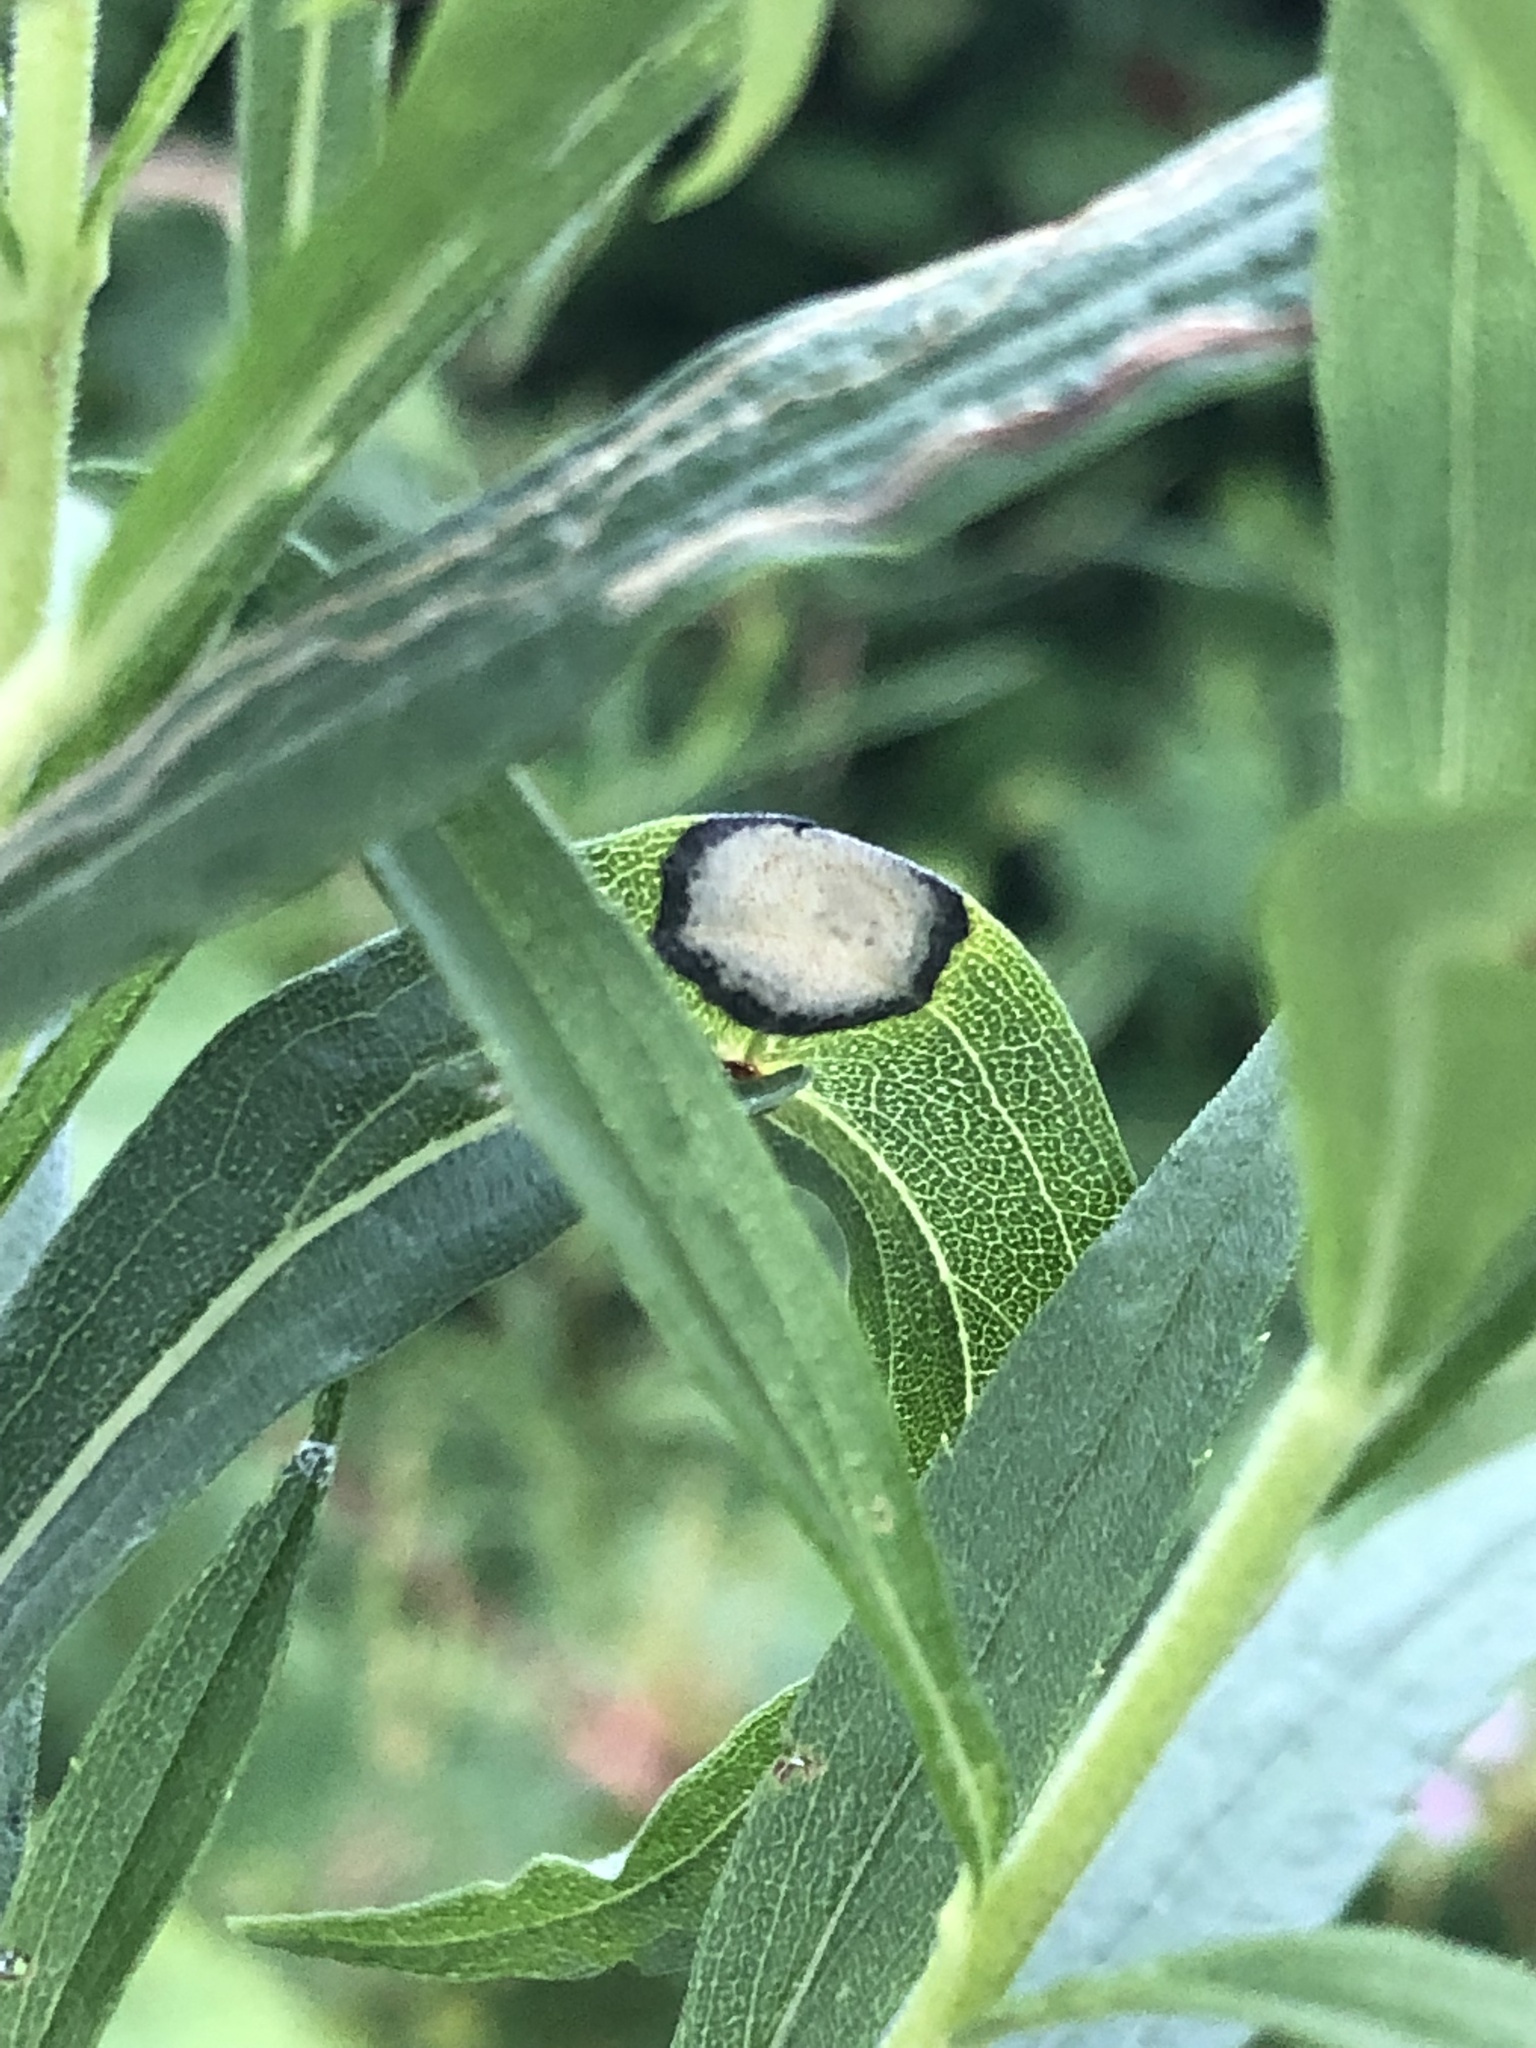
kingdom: Animalia
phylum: Arthropoda
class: Insecta
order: Diptera
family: Cecidomyiidae
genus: Asteromyia
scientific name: Asteromyia carbonifera
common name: Carbonifera goldenrod gall midge
